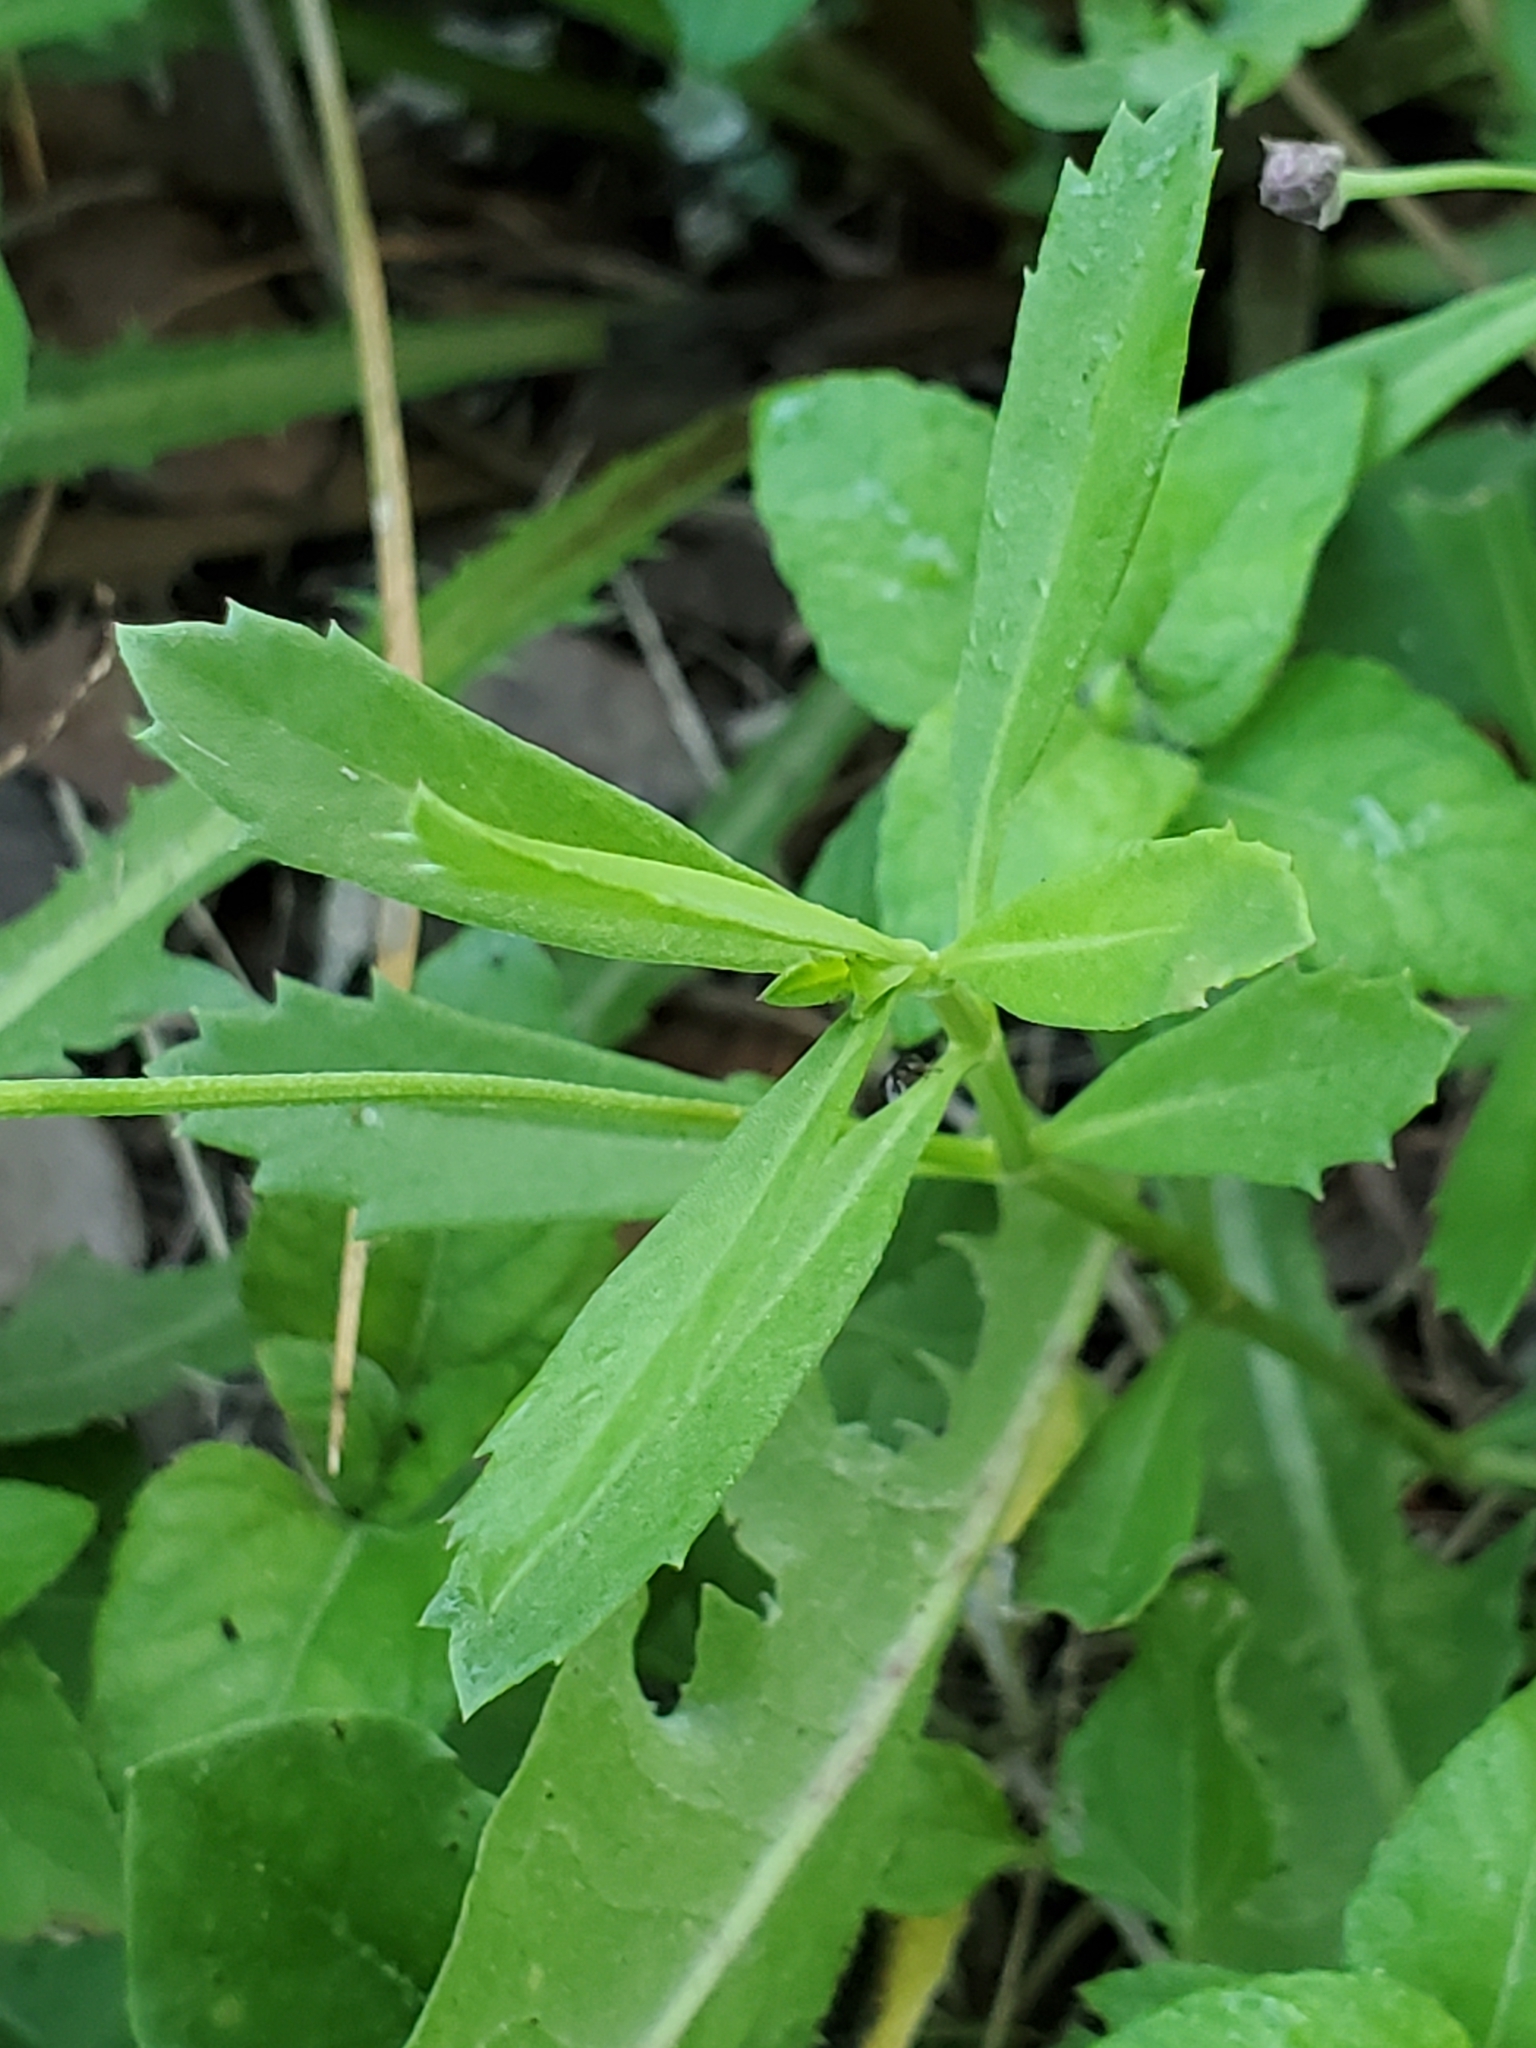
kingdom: Plantae
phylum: Tracheophyta
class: Magnoliopsida
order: Lamiales
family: Verbenaceae
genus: Phyla
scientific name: Phyla nodiflora
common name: Frogfruit
